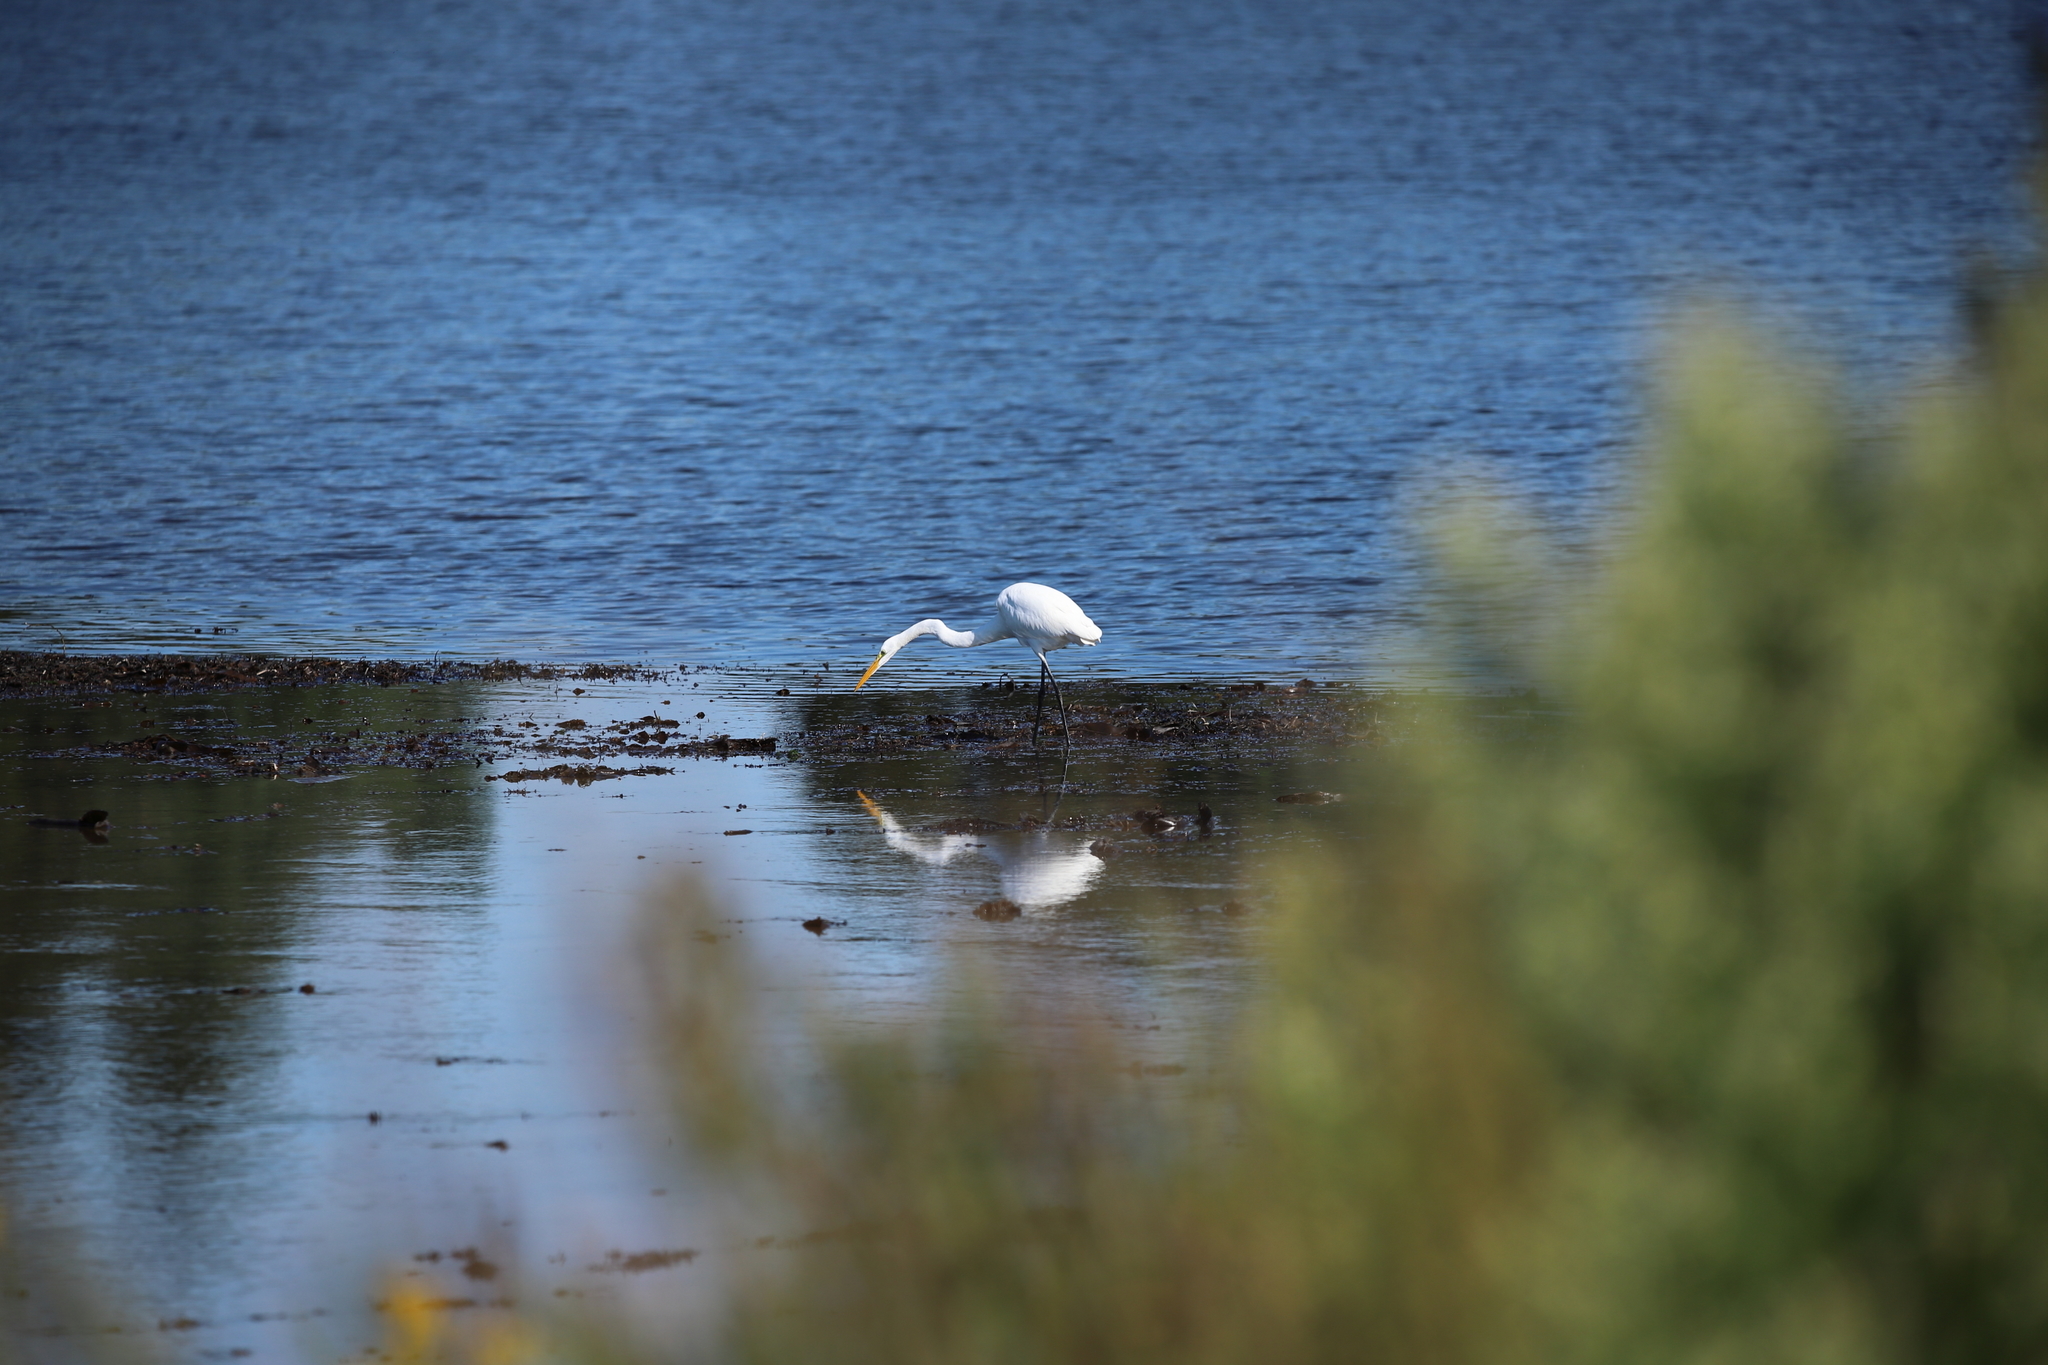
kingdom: Animalia
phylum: Chordata
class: Aves
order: Pelecaniformes
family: Ardeidae
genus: Ardea
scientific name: Ardea alba
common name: Great egret
